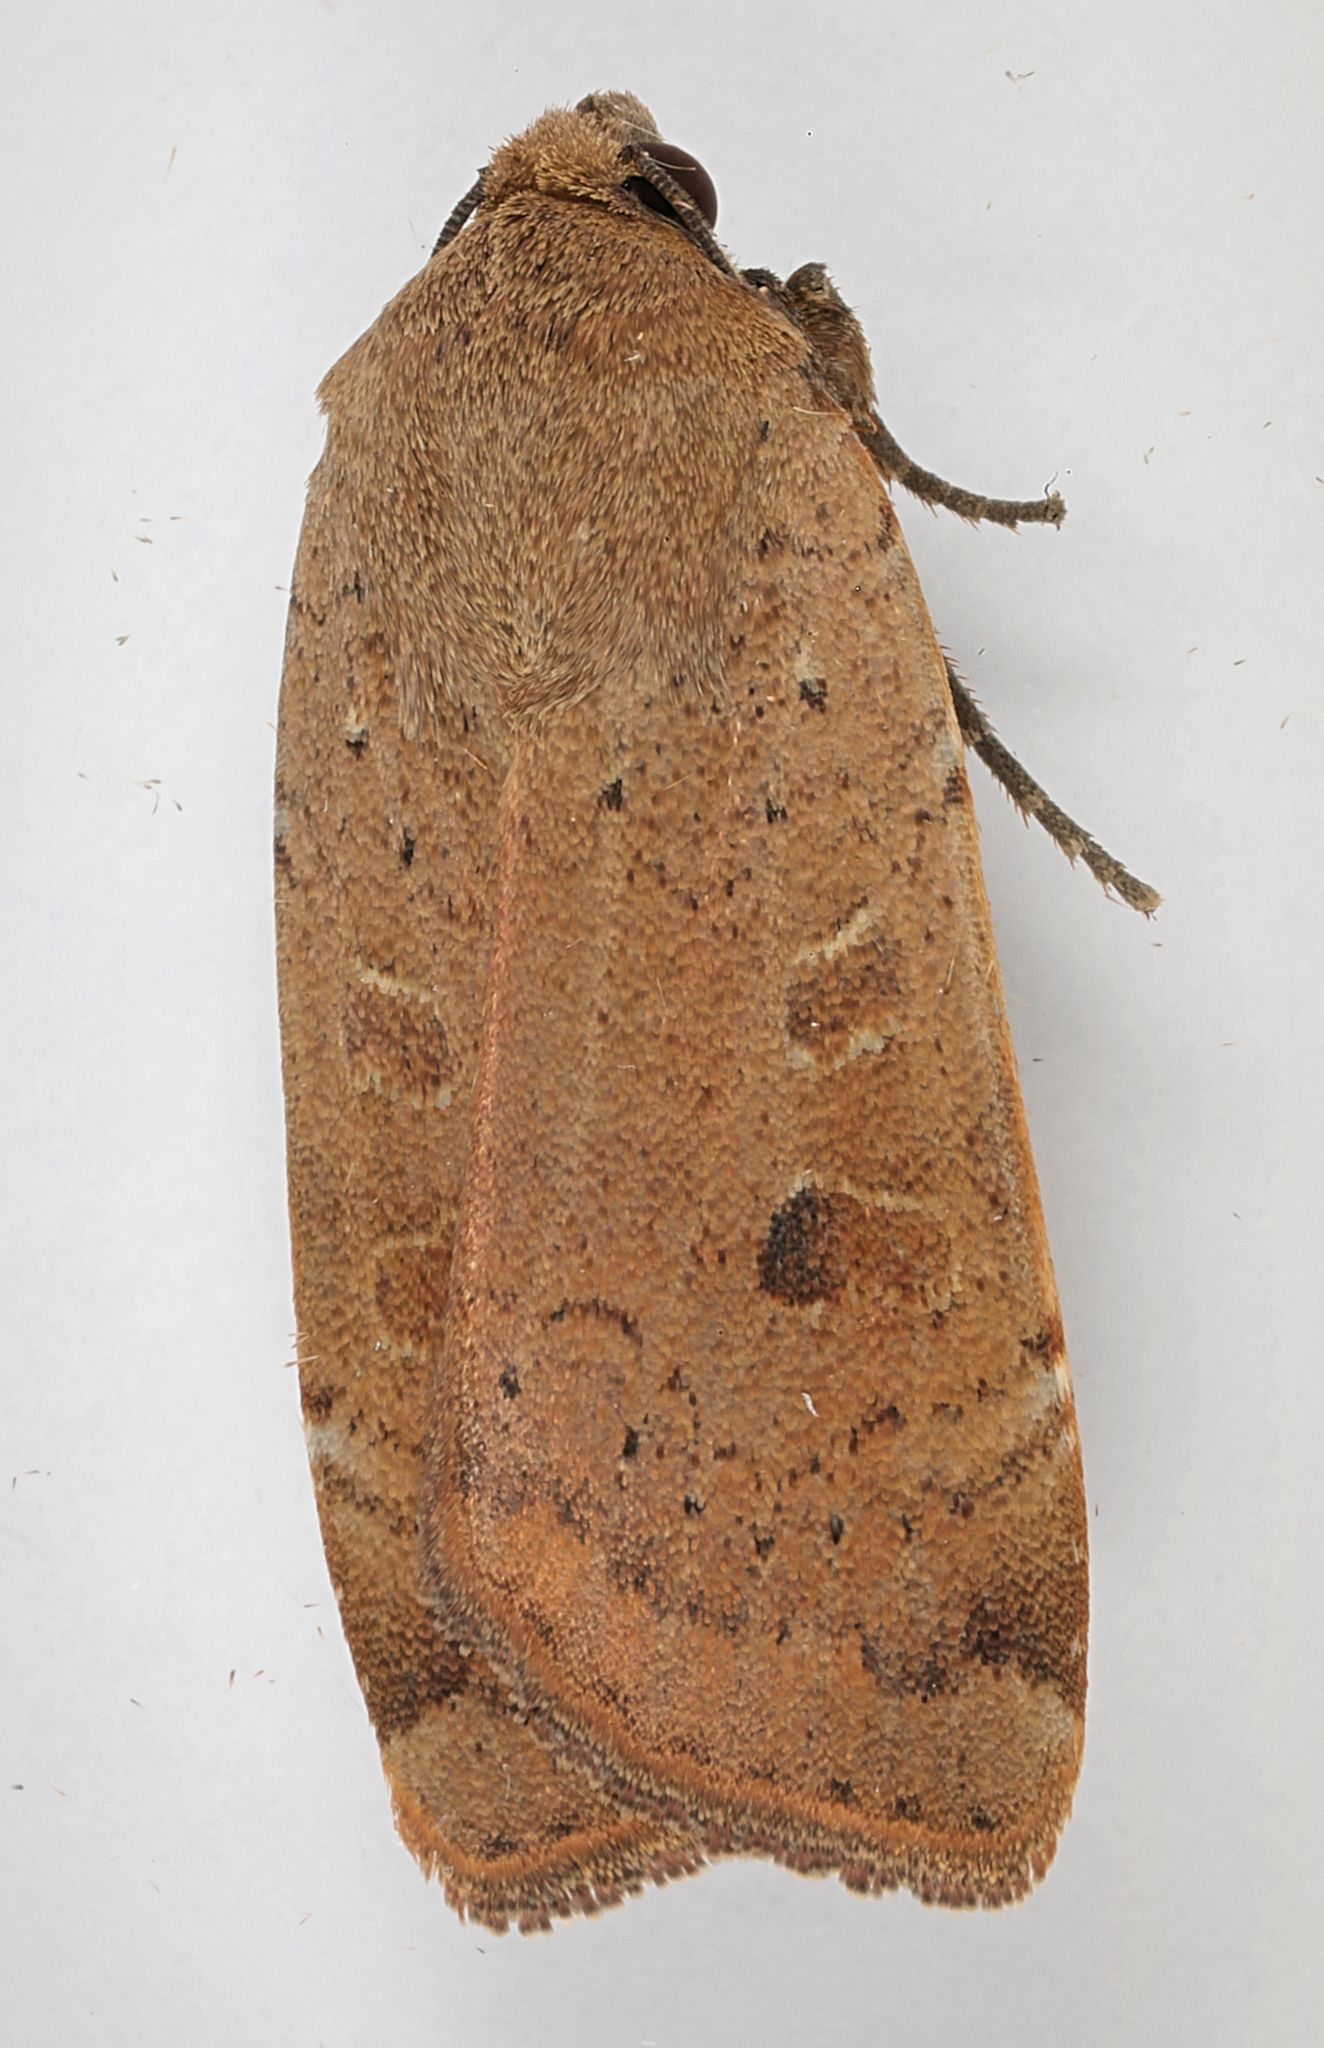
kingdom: Animalia
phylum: Arthropoda
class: Insecta
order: Lepidoptera
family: Noctuidae
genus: Noctua
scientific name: Noctua comes
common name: Lesser yellow underwing
